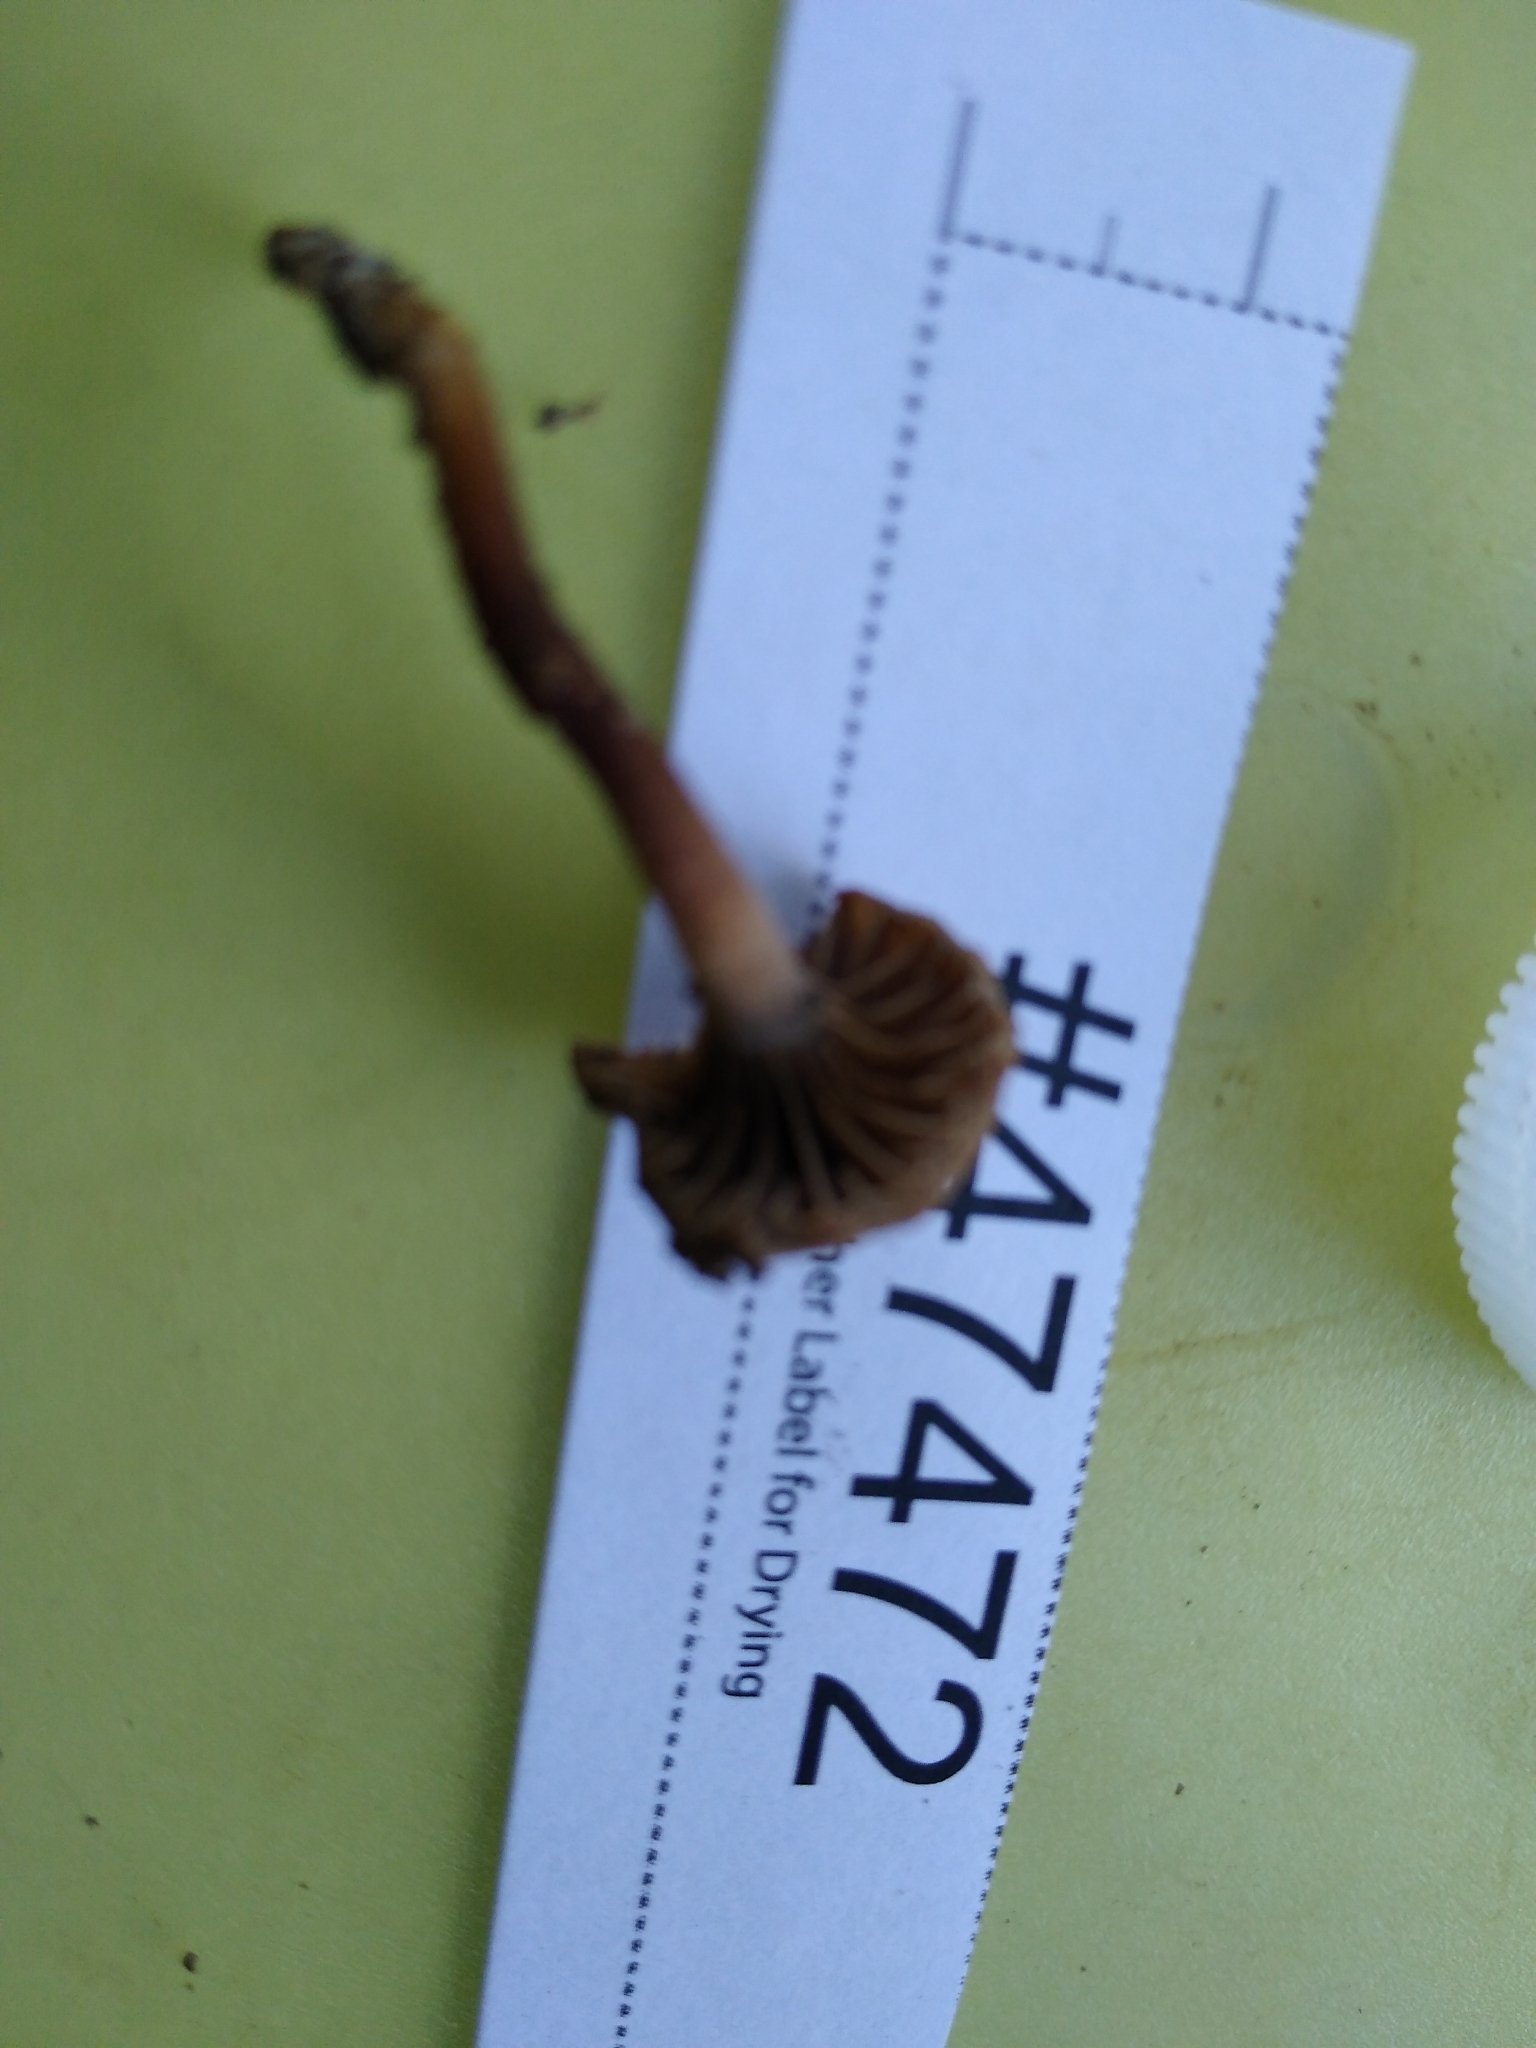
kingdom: Fungi
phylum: Basidiomycota
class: Agaricomycetes
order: Agaricales
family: Clavariaceae
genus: Hodophilus
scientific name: Hodophilus rugulosus
